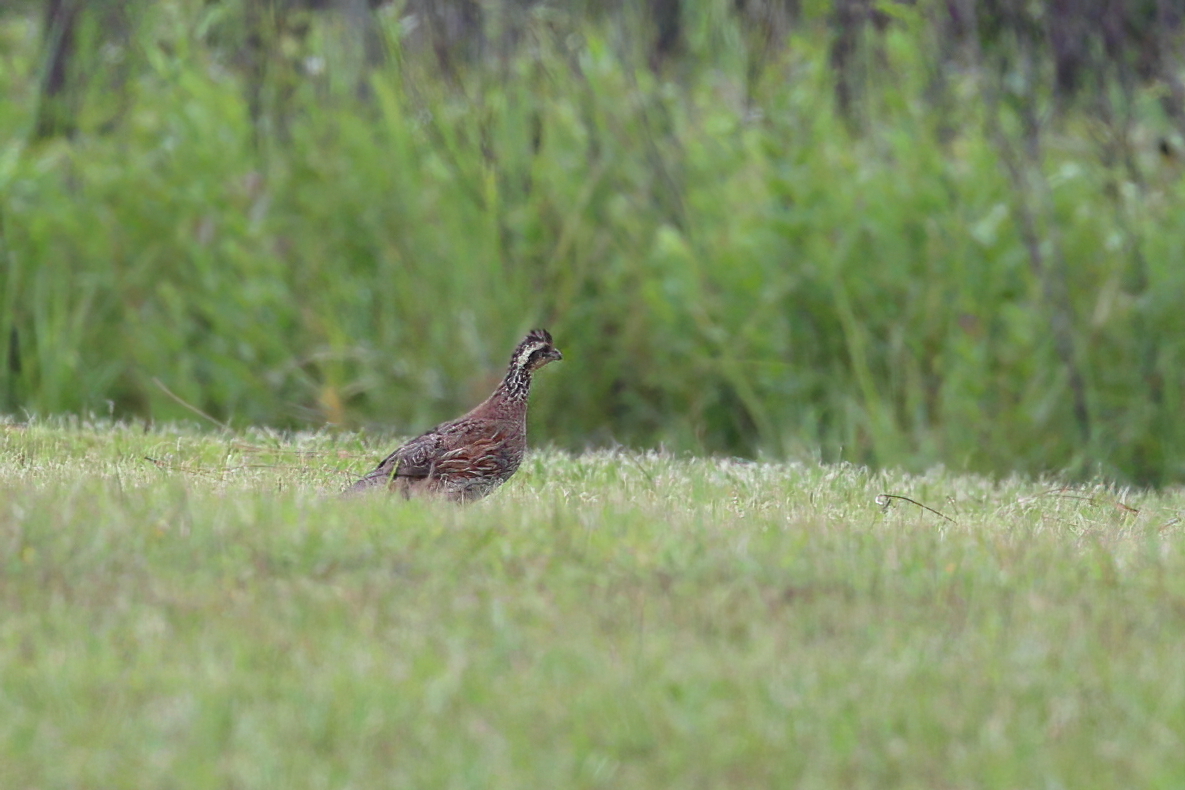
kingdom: Animalia
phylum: Chordata
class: Aves
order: Galliformes
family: Odontophoridae
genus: Colinus
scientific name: Colinus virginianus
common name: Northern bobwhite
